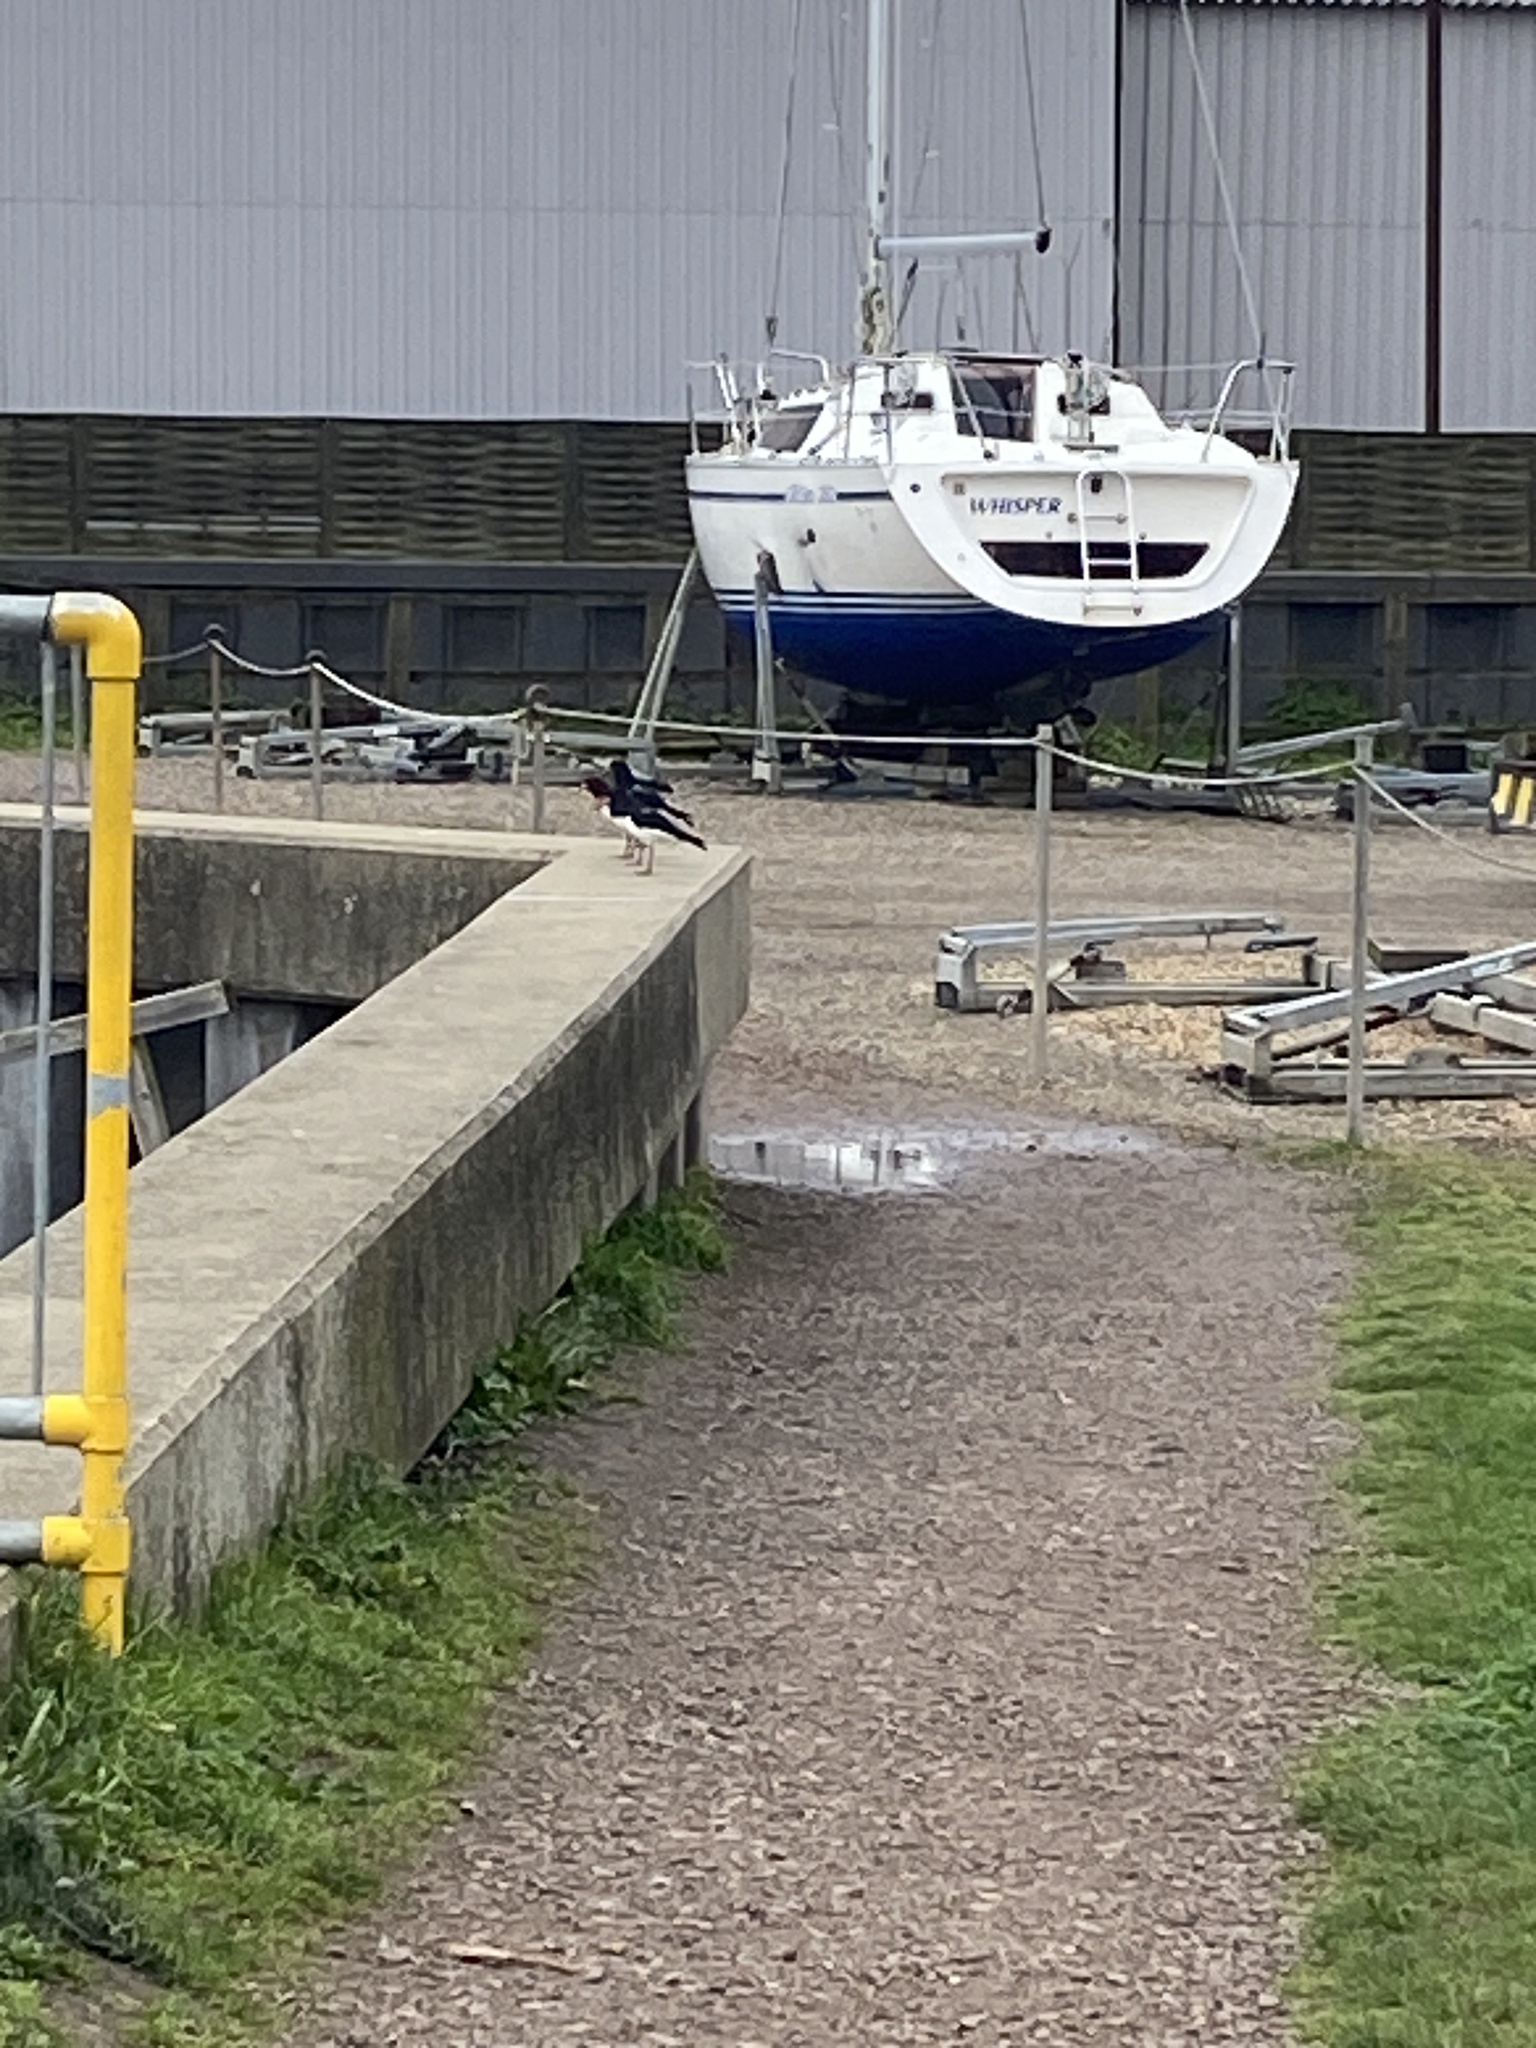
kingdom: Animalia
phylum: Chordata
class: Aves
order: Charadriiformes
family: Haematopodidae
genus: Haematopus
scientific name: Haematopus ostralegus
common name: Eurasian oystercatcher
